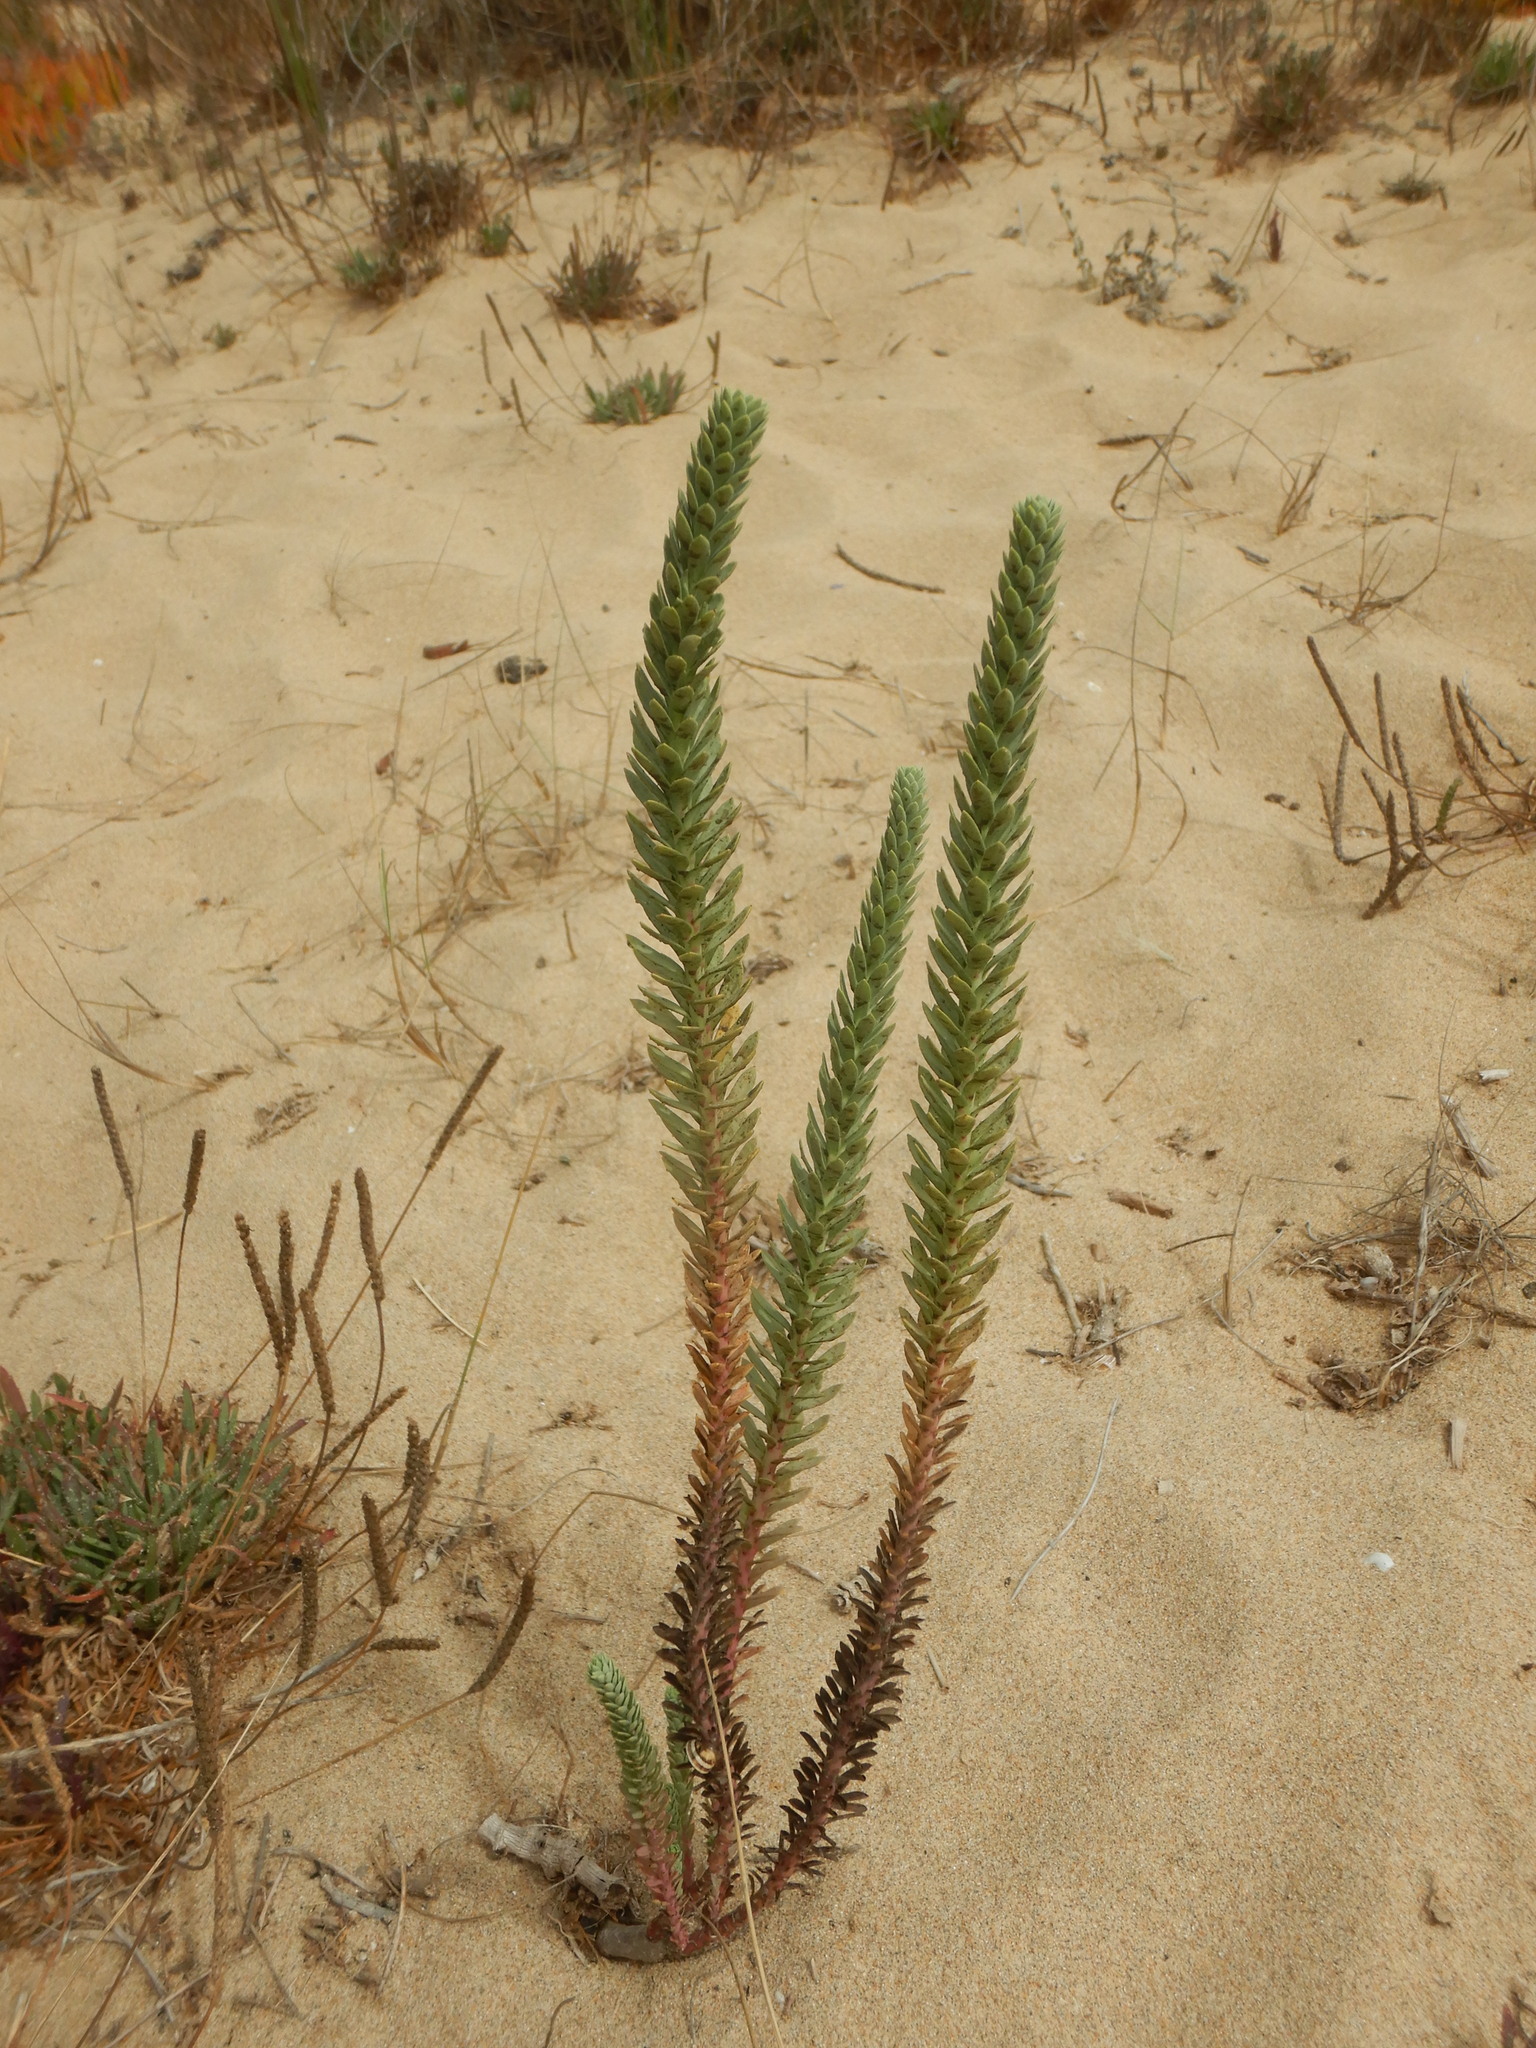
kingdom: Plantae
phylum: Tracheophyta
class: Magnoliopsida
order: Malpighiales
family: Euphorbiaceae
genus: Euphorbia
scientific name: Euphorbia paralias
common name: Sea spurge
